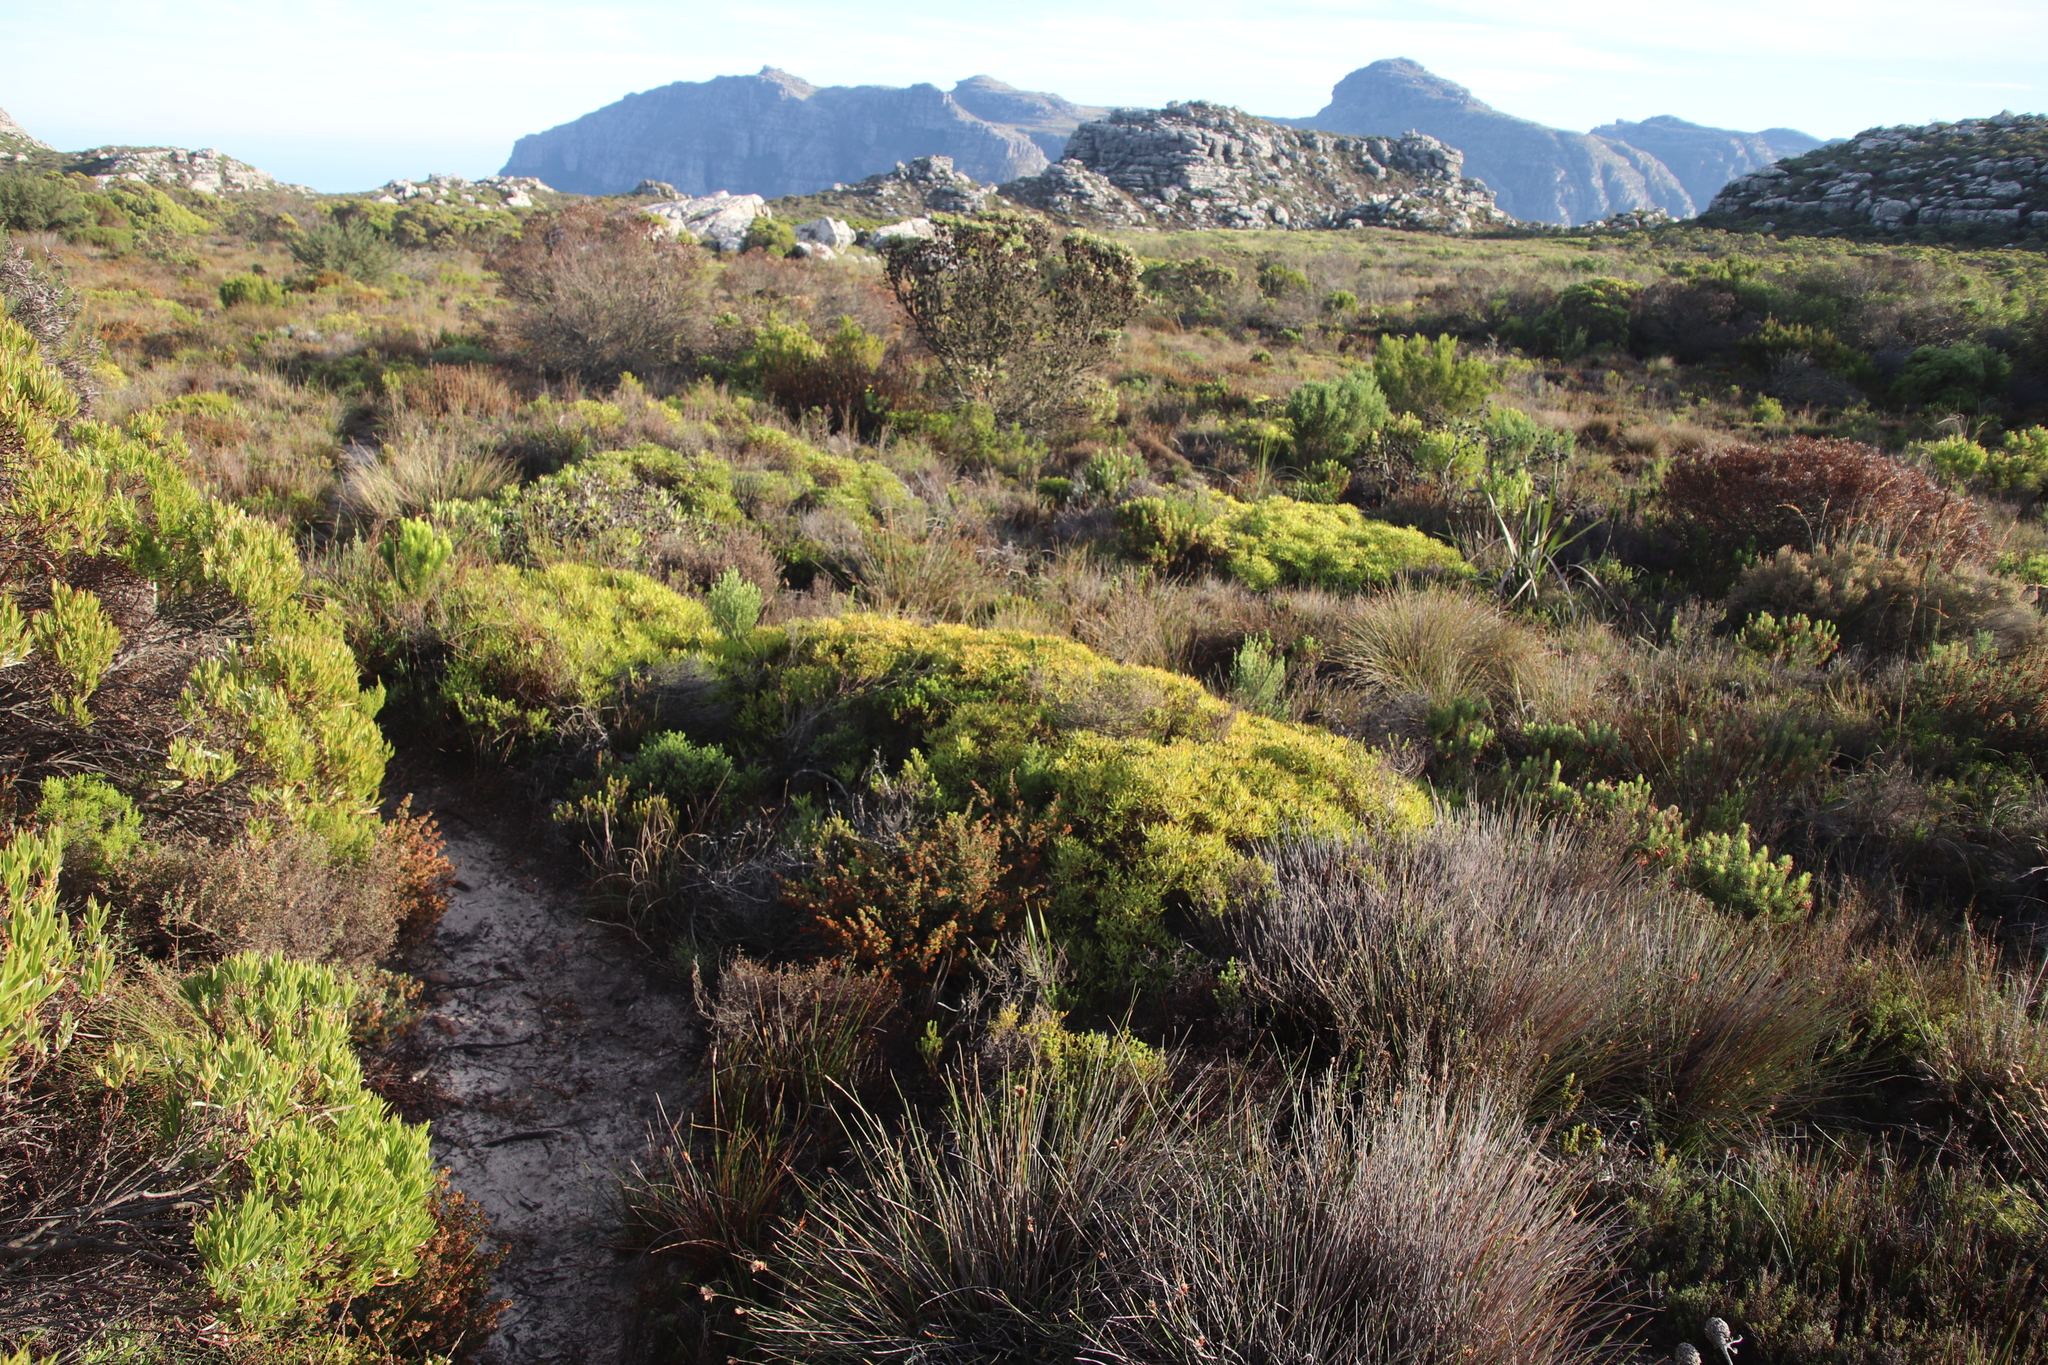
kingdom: Plantae
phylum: Tracheophyta
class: Magnoliopsida
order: Proteales
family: Proteaceae
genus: Leucadendron
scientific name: Leucadendron salignum
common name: Common sunshine conebush
